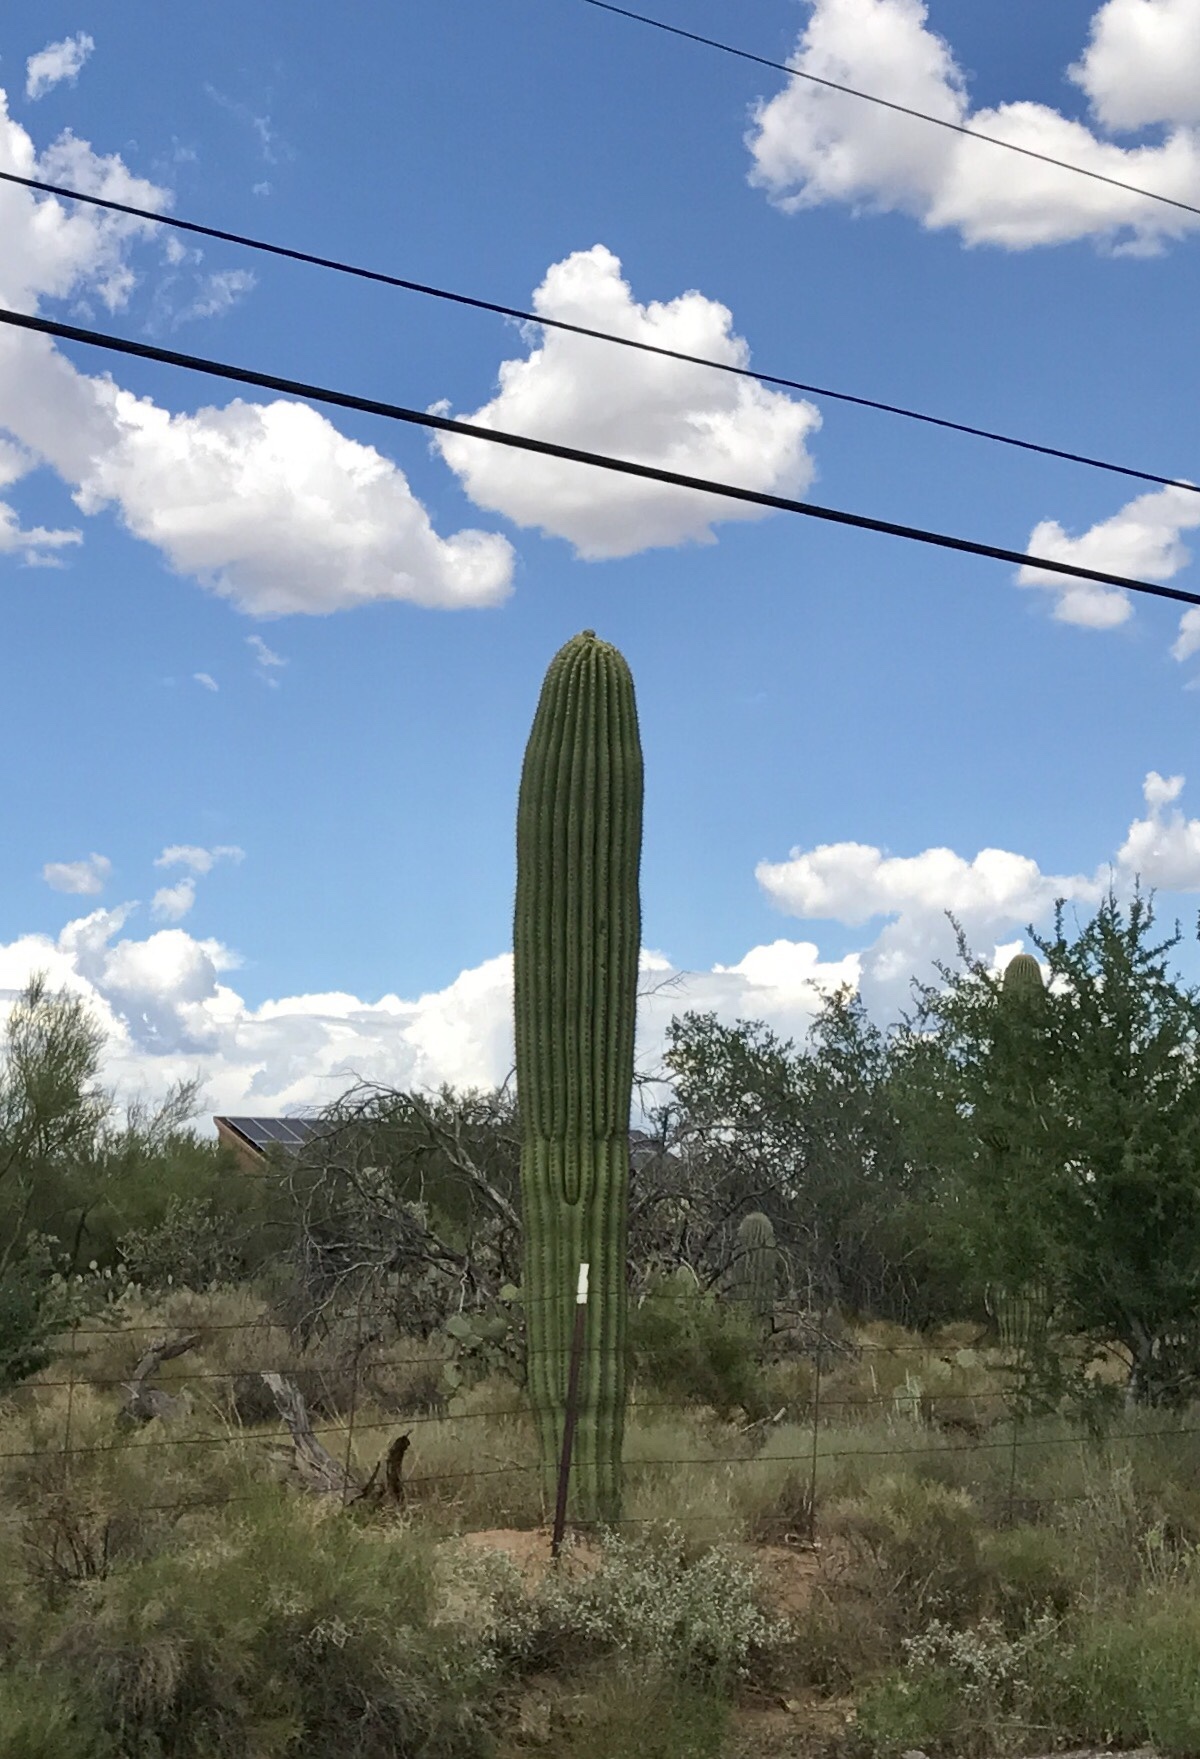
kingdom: Plantae
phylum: Tracheophyta
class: Magnoliopsida
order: Caryophyllales
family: Cactaceae
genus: Carnegiea
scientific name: Carnegiea gigantea
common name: Saguaro
